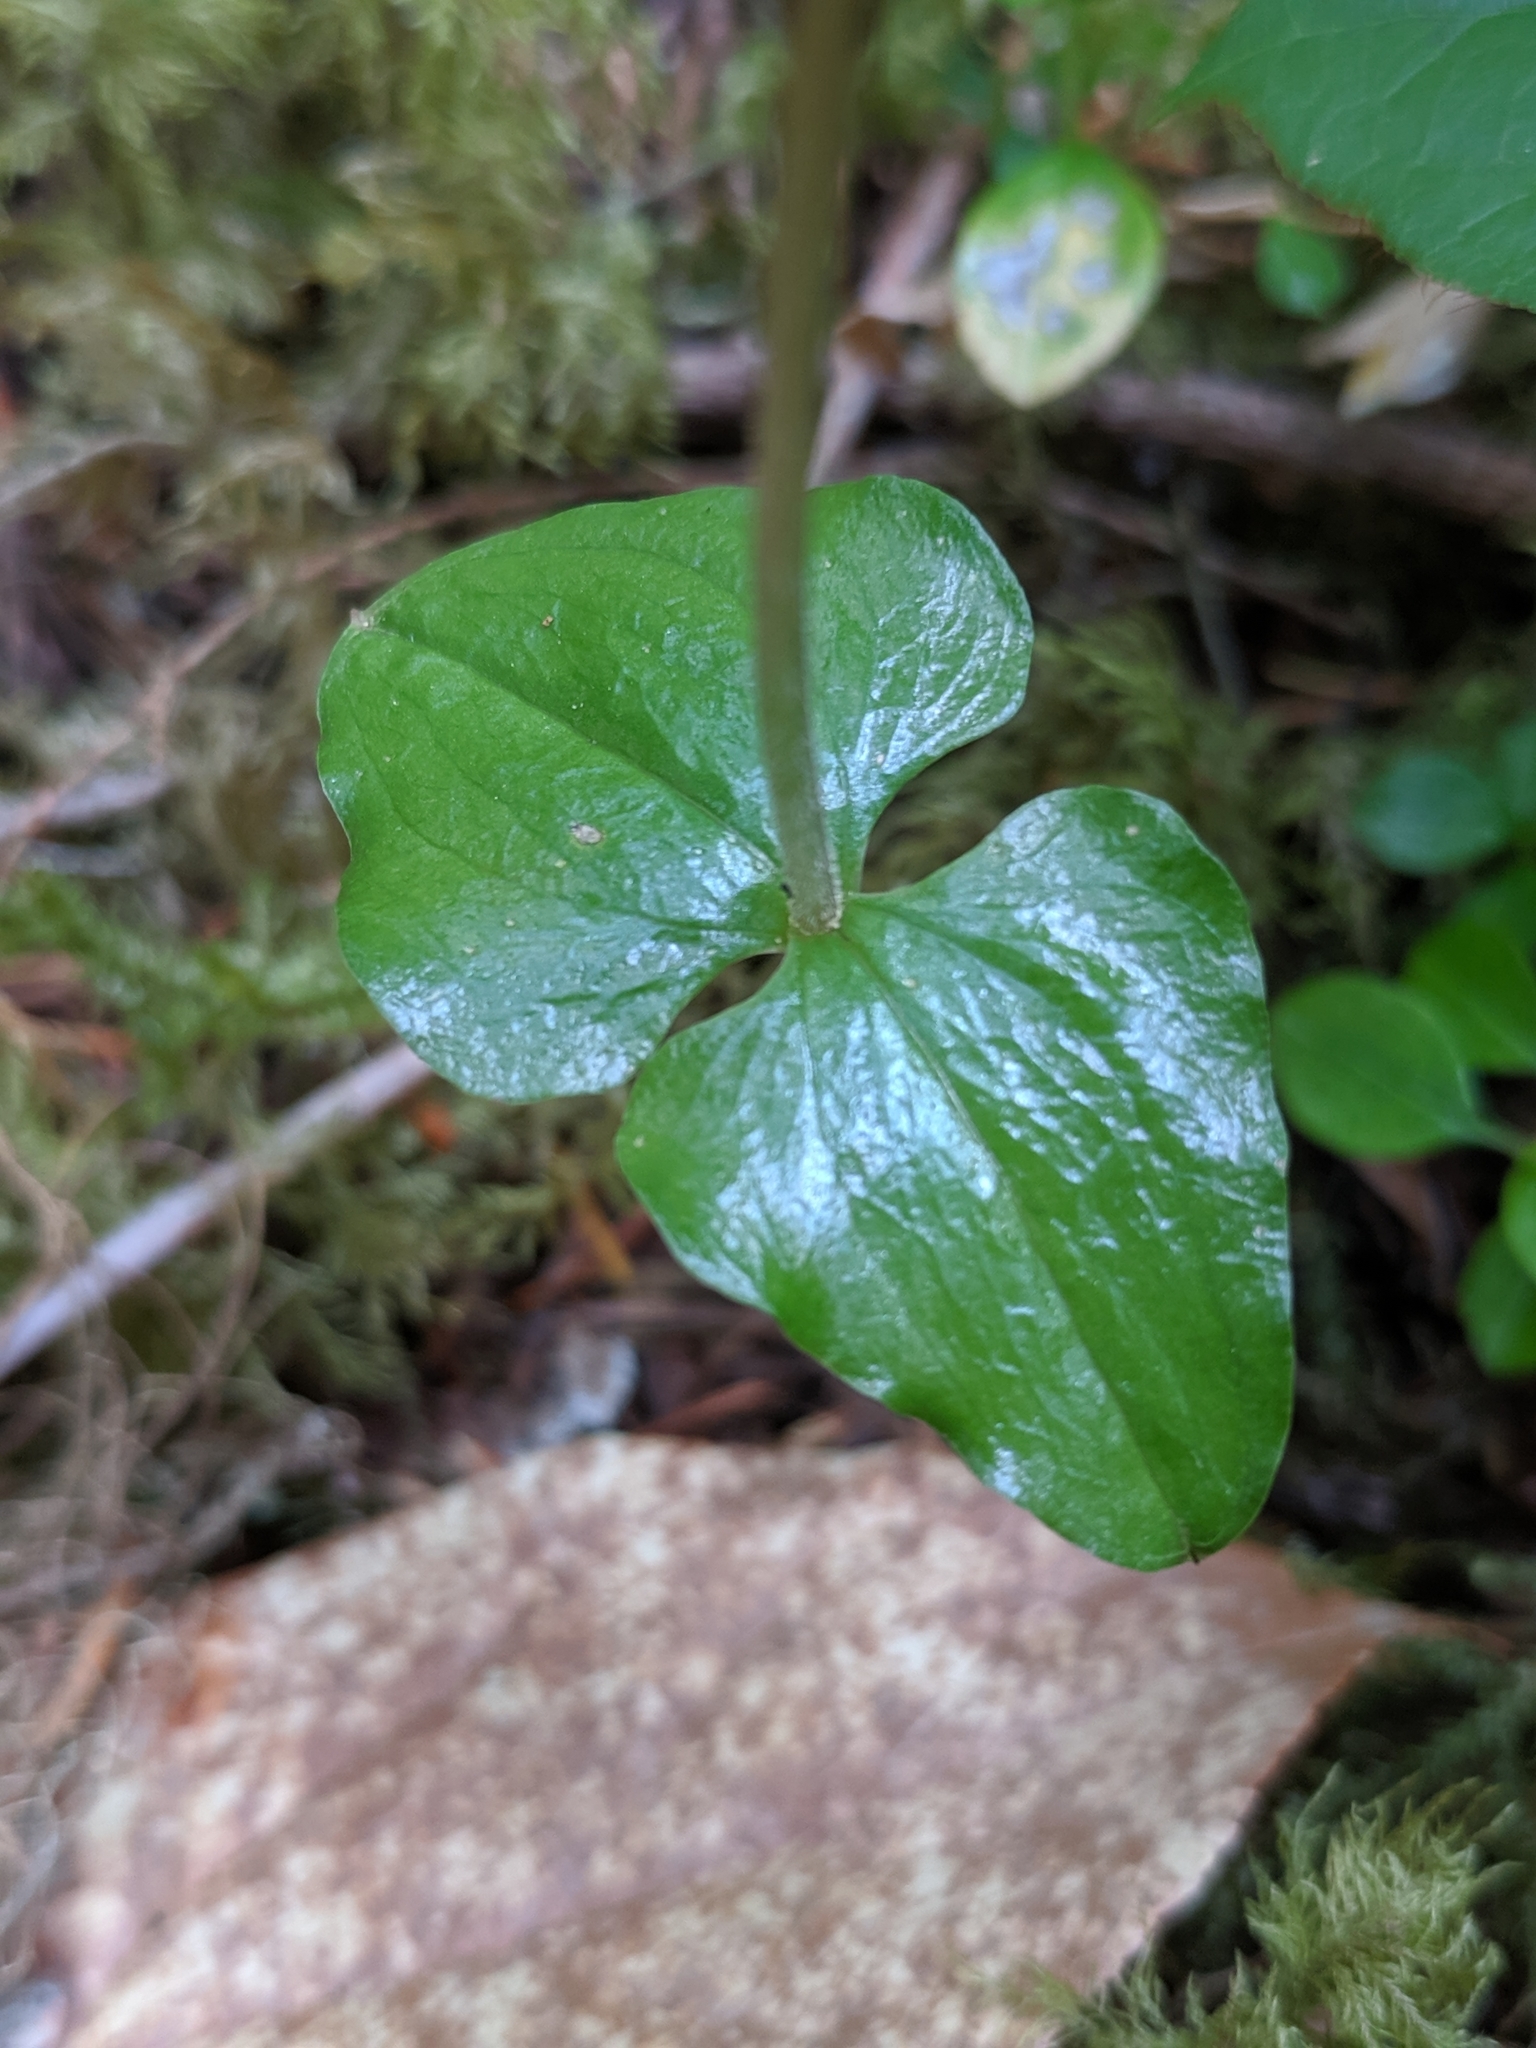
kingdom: Plantae
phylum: Tracheophyta
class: Liliopsida
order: Asparagales
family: Orchidaceae
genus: Neottia
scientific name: Neottia cordata
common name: Lesser twayblade
